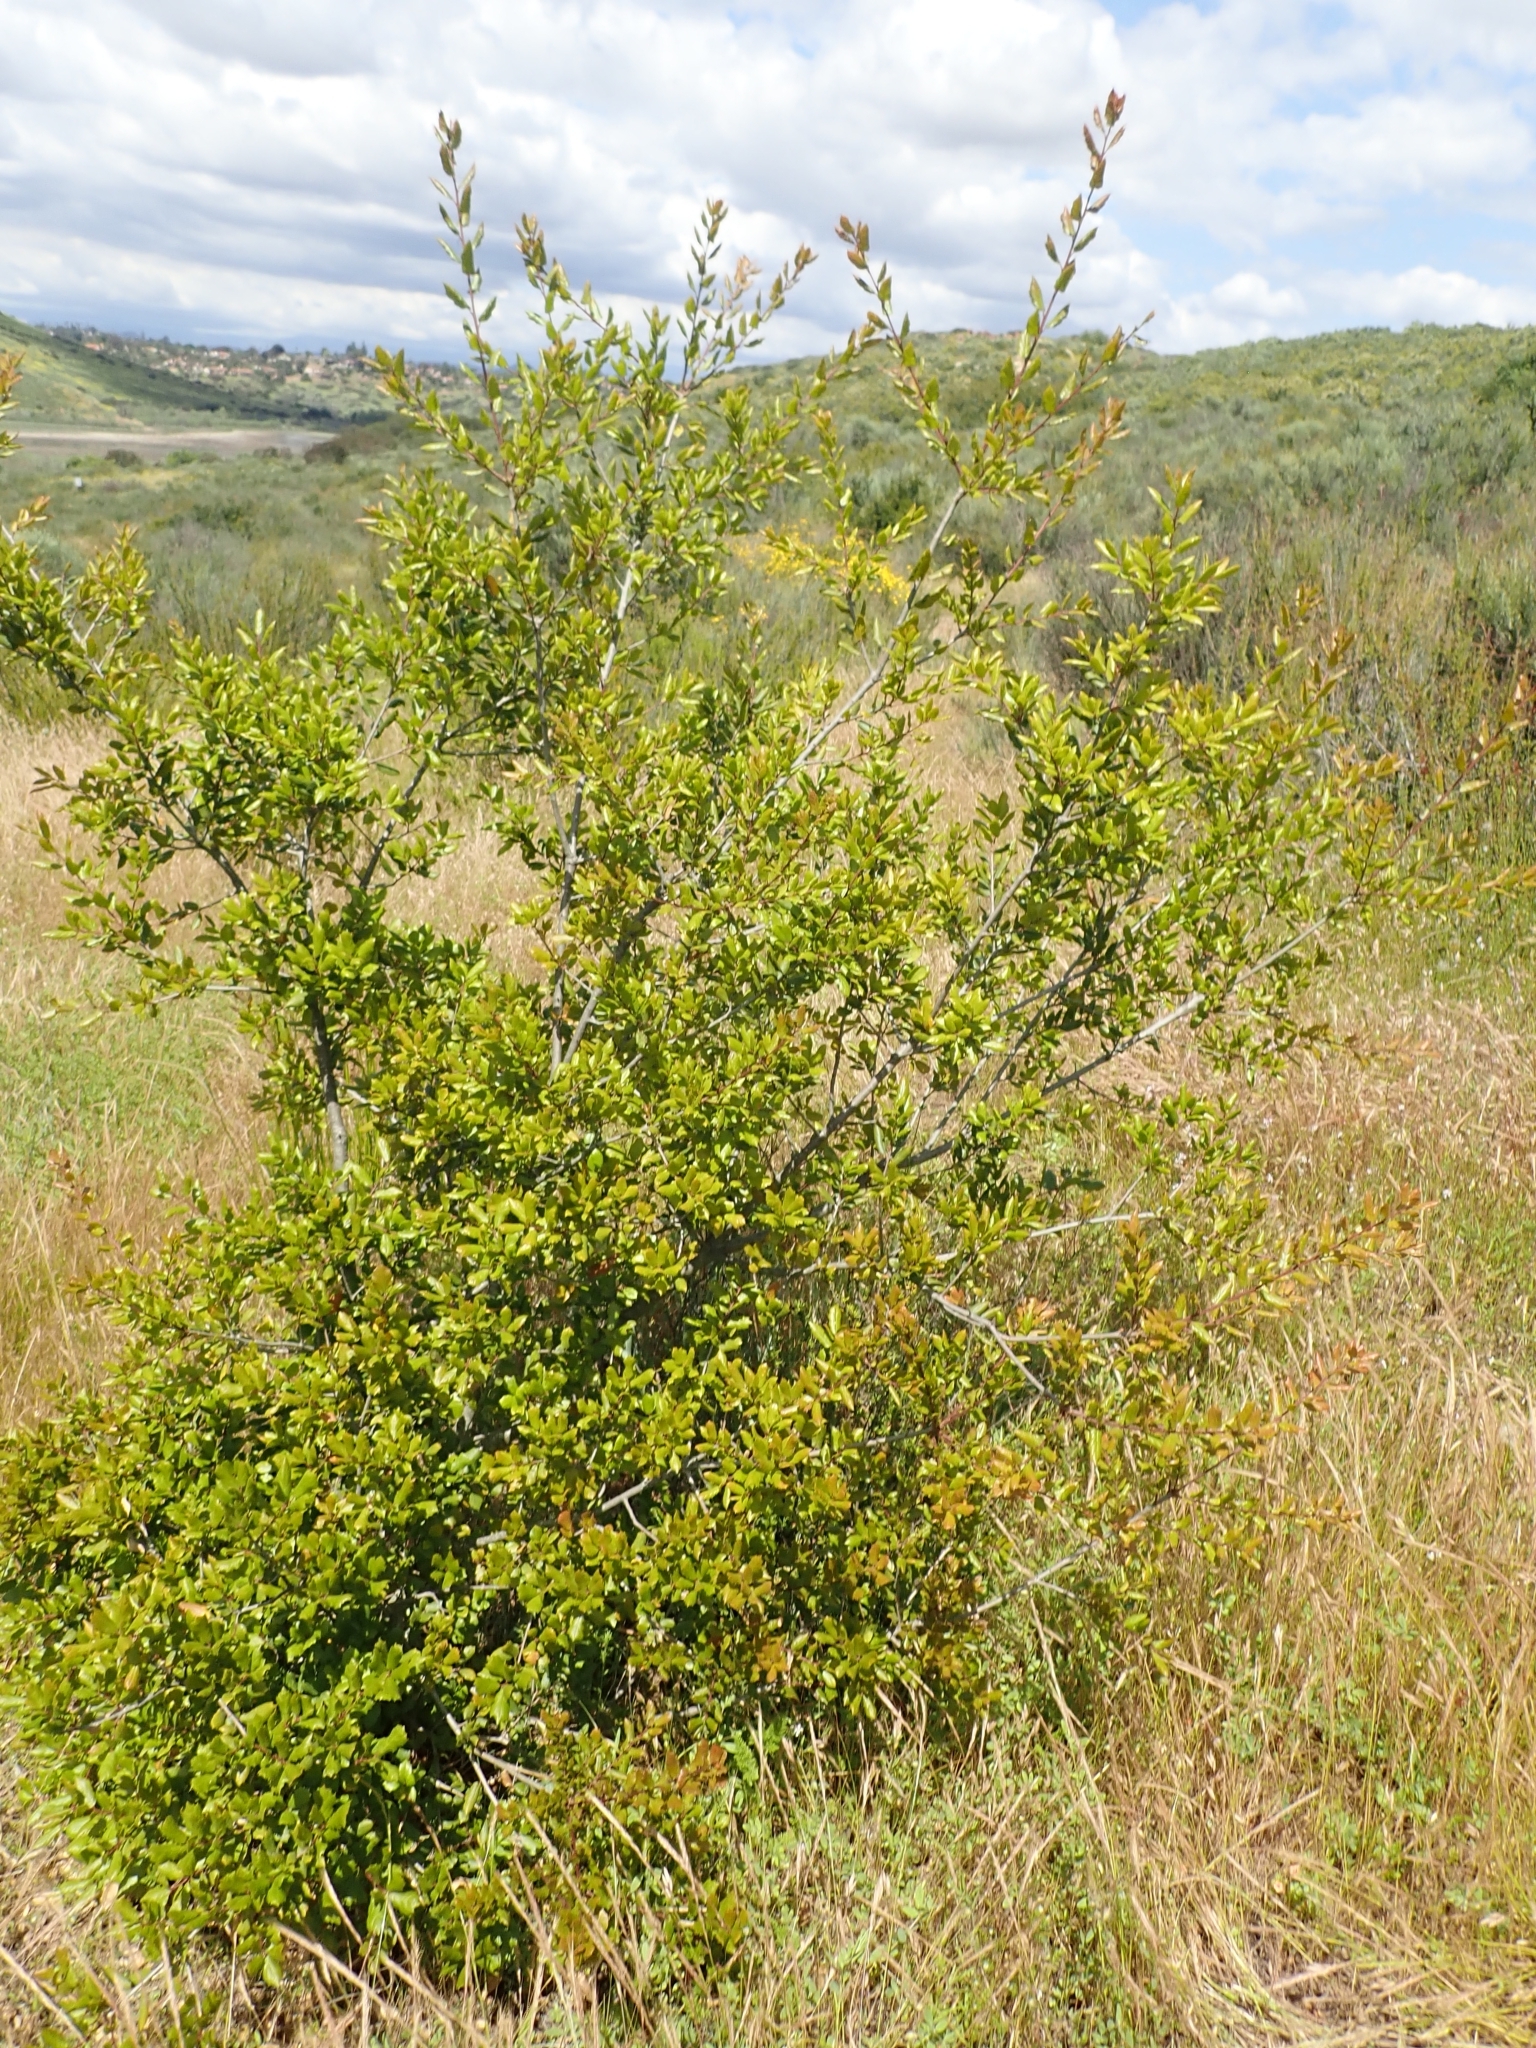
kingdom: Plantae
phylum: Tracheophyta
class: Magnoliopsida
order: Fagales
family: Fagaceae
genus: Quercus
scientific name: Quercus agrifolia
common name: California live oak
